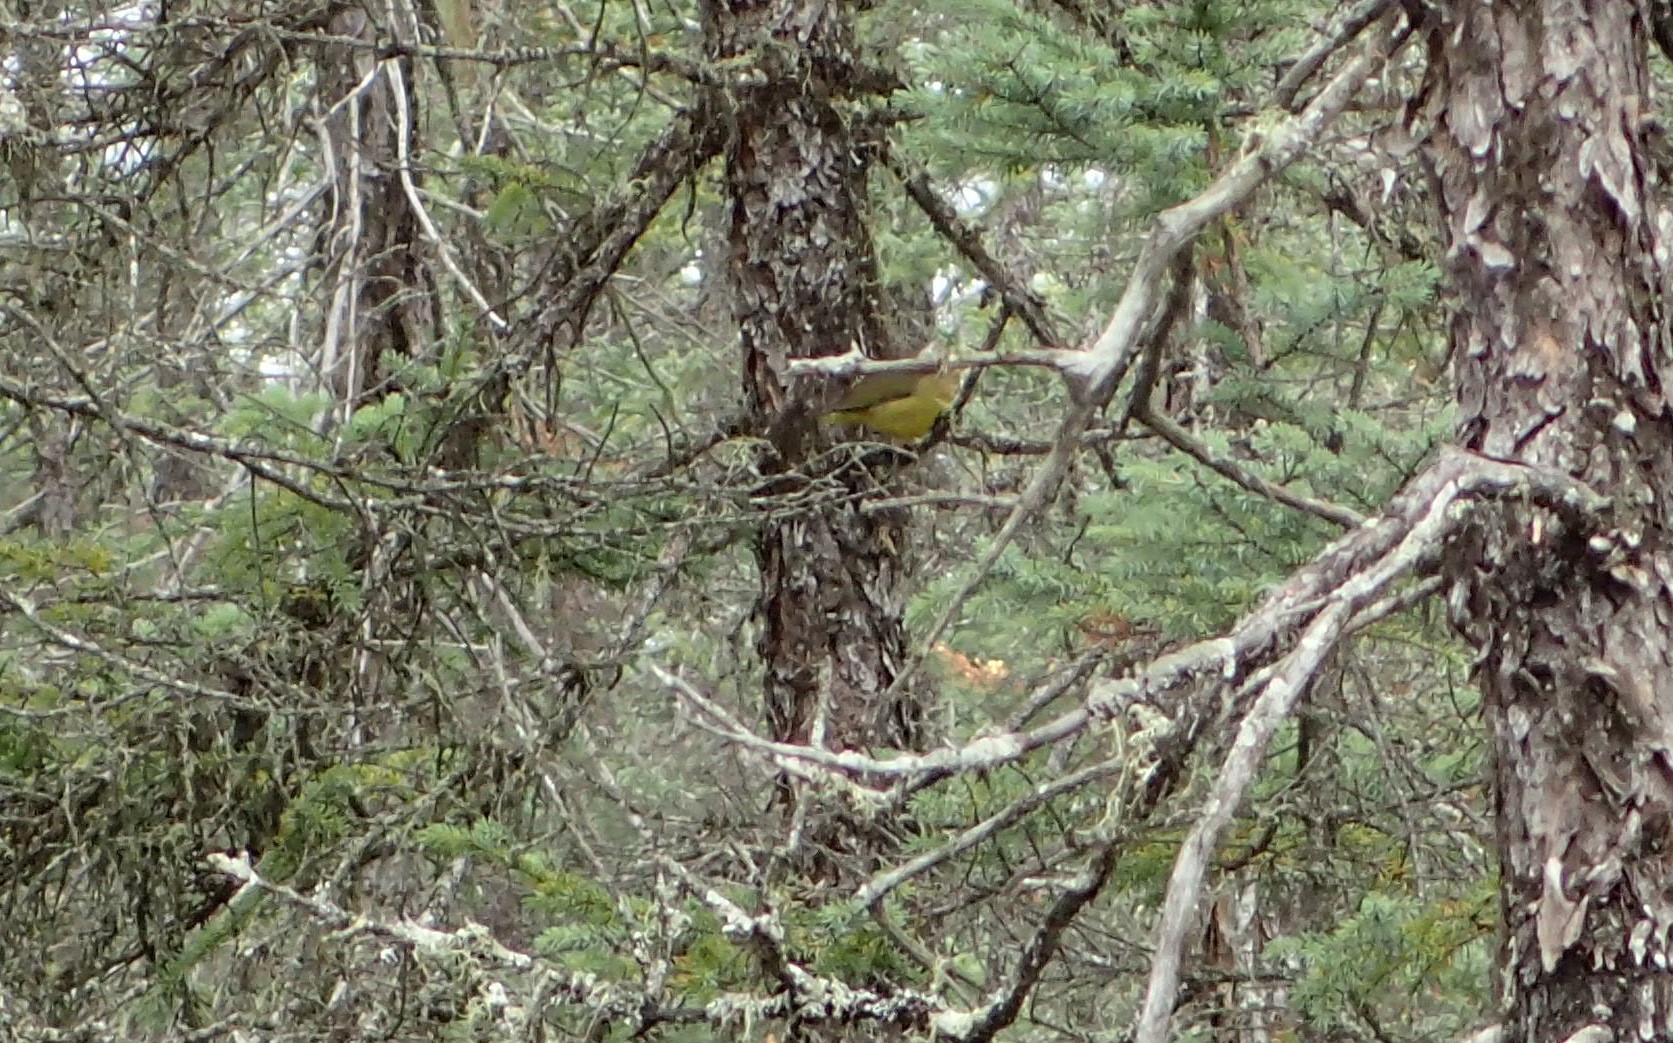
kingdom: Animalia
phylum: Chordata
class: Aves
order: Passeriformes
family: Parulidae
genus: Oporornis
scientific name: Oporornis agilis
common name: Connecticut warbler
